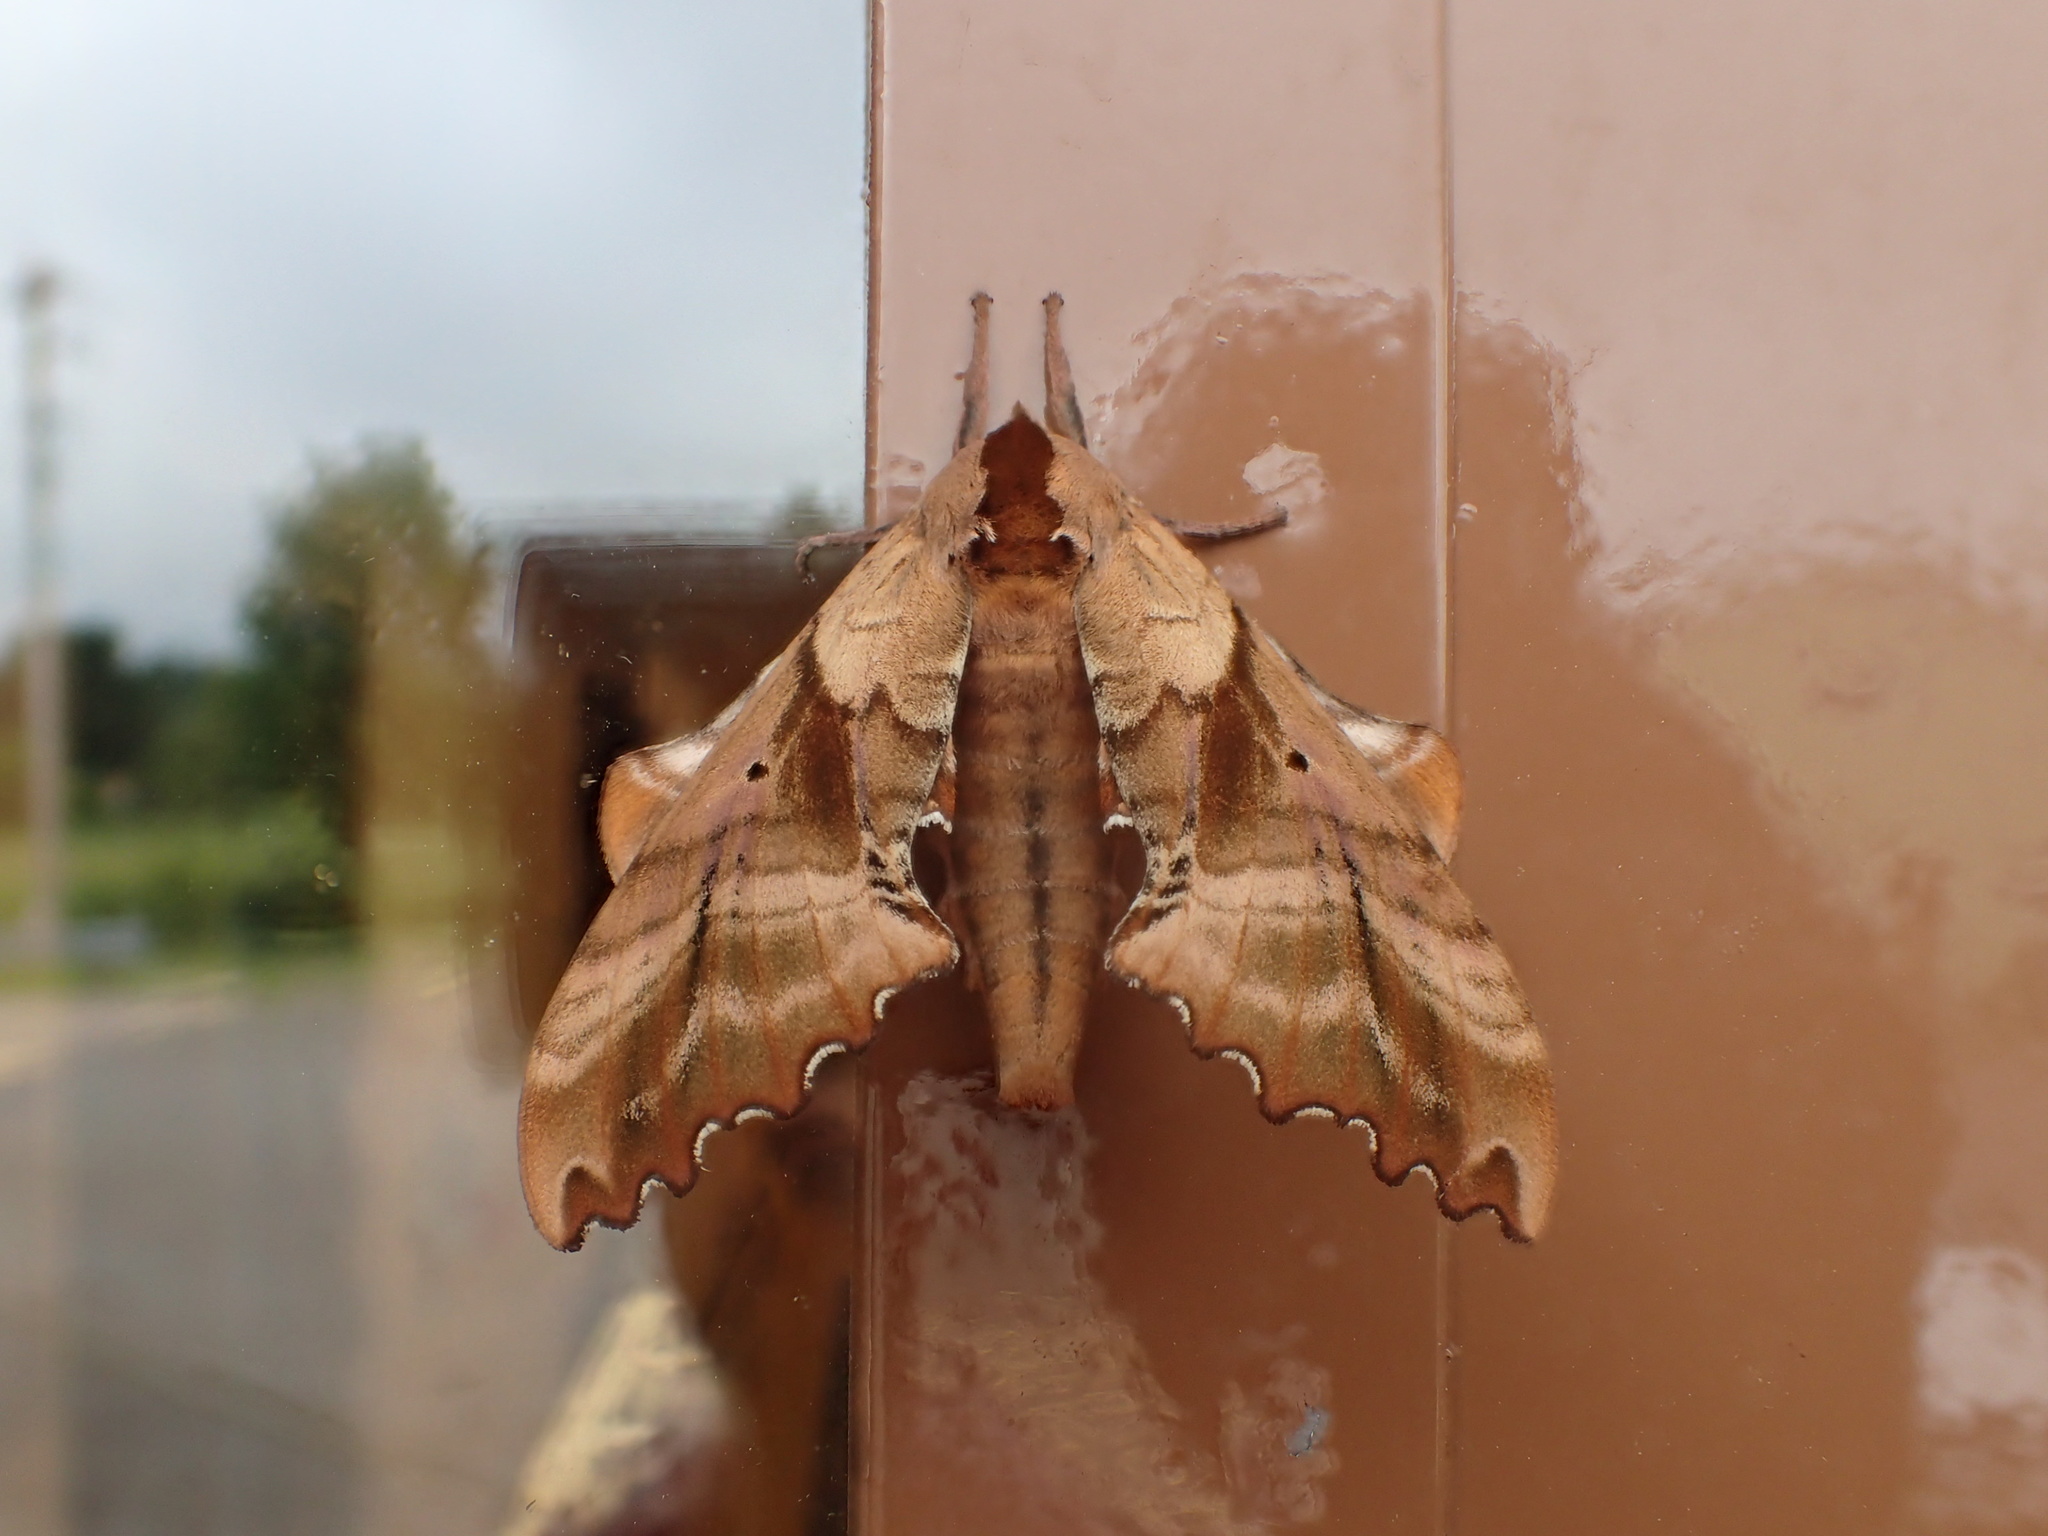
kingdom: Animalia
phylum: Arthropoda
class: Insecta
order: Lepidoptera
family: Sphingidae
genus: Paonias
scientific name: Paonias excaecata
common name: Blind-eyed sphinx
